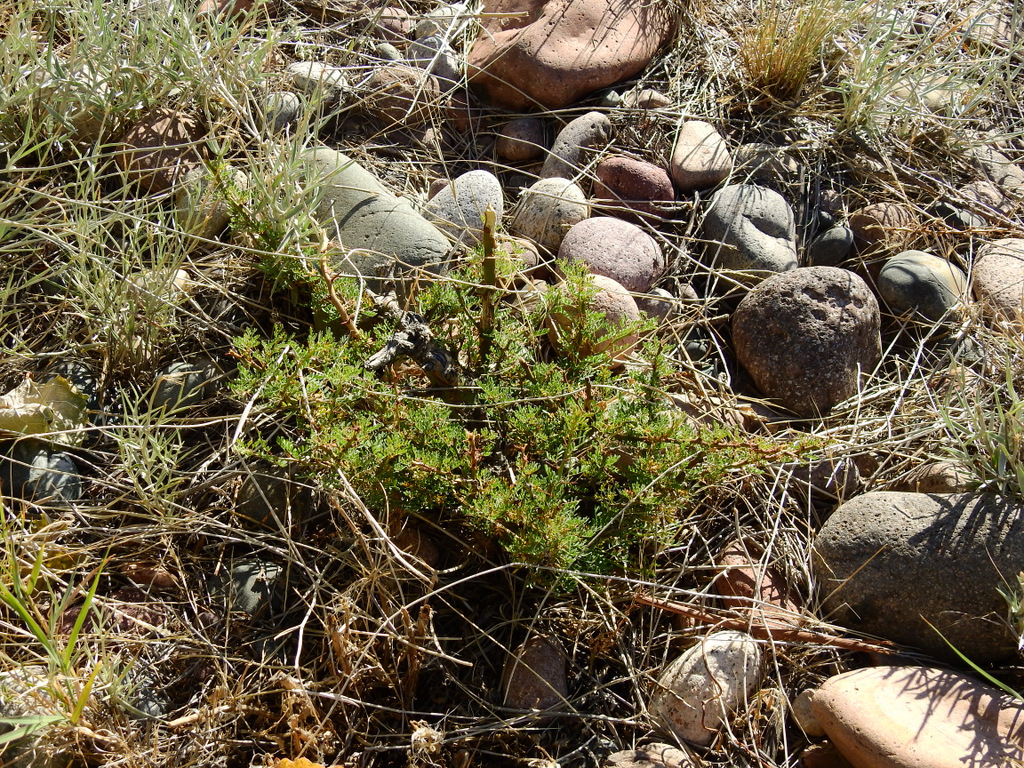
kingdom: Plantae
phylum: Tracheophyta
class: Magnoliopsida
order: Fabales
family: Fabaceae
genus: Parkinsonia
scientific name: Parkinsonia praecox
